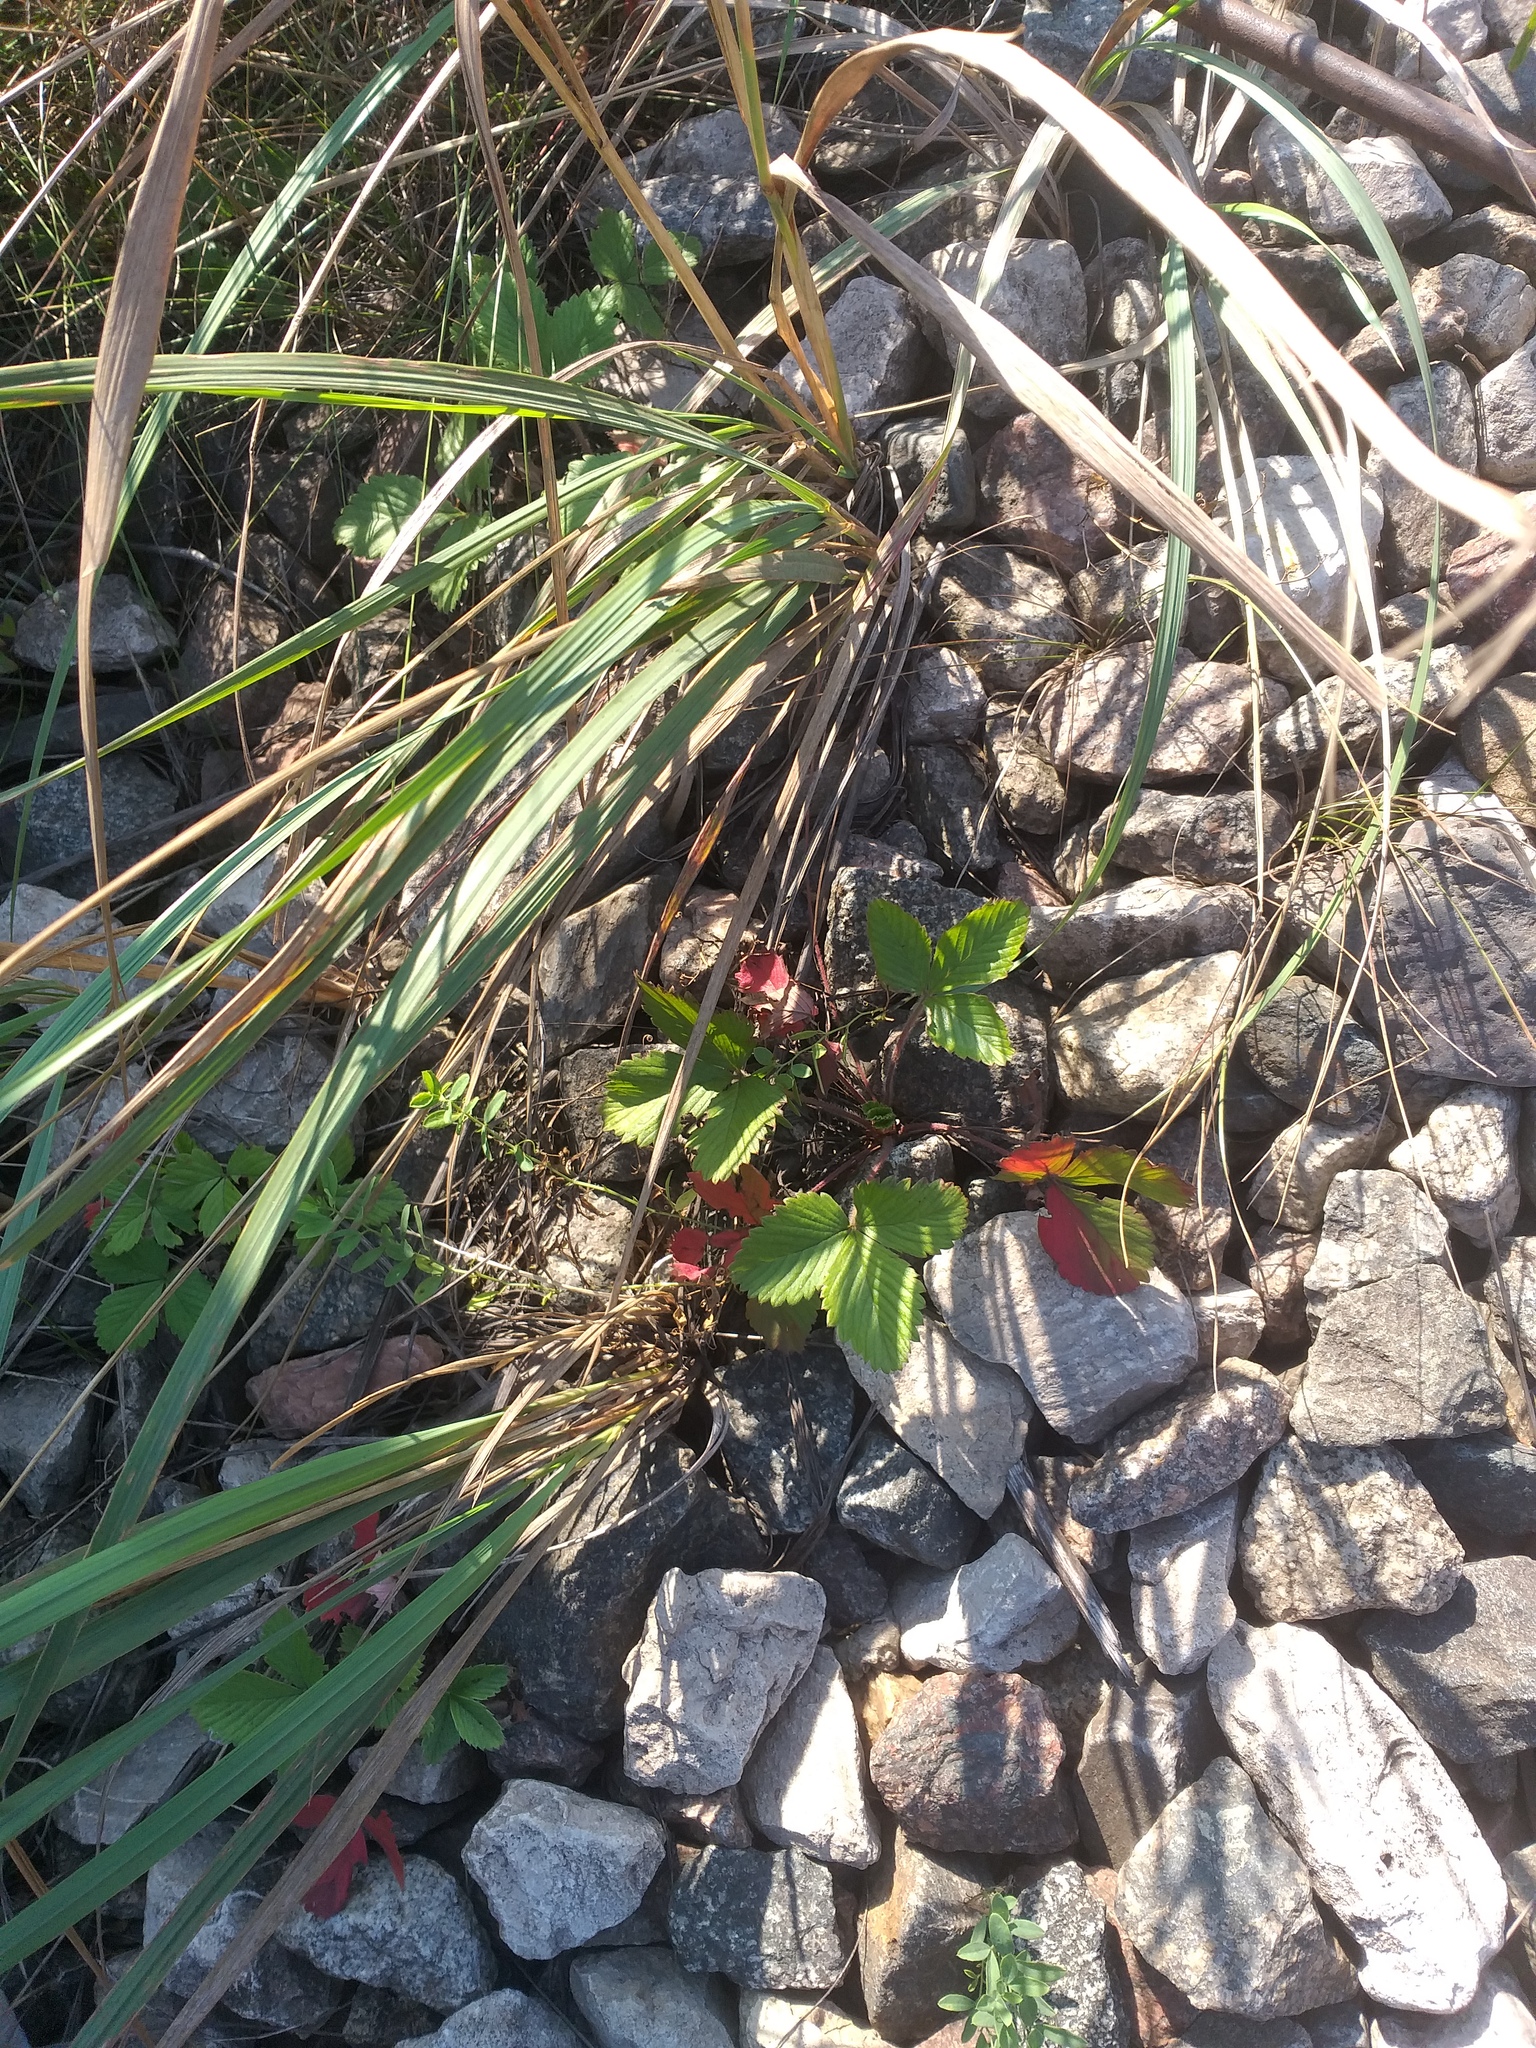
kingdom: Plantae
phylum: Tracheophyta
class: Magnoliopsida
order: Rosales
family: Rosaceae
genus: Fragaria
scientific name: Fragaria vesca
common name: Wild strawberry
